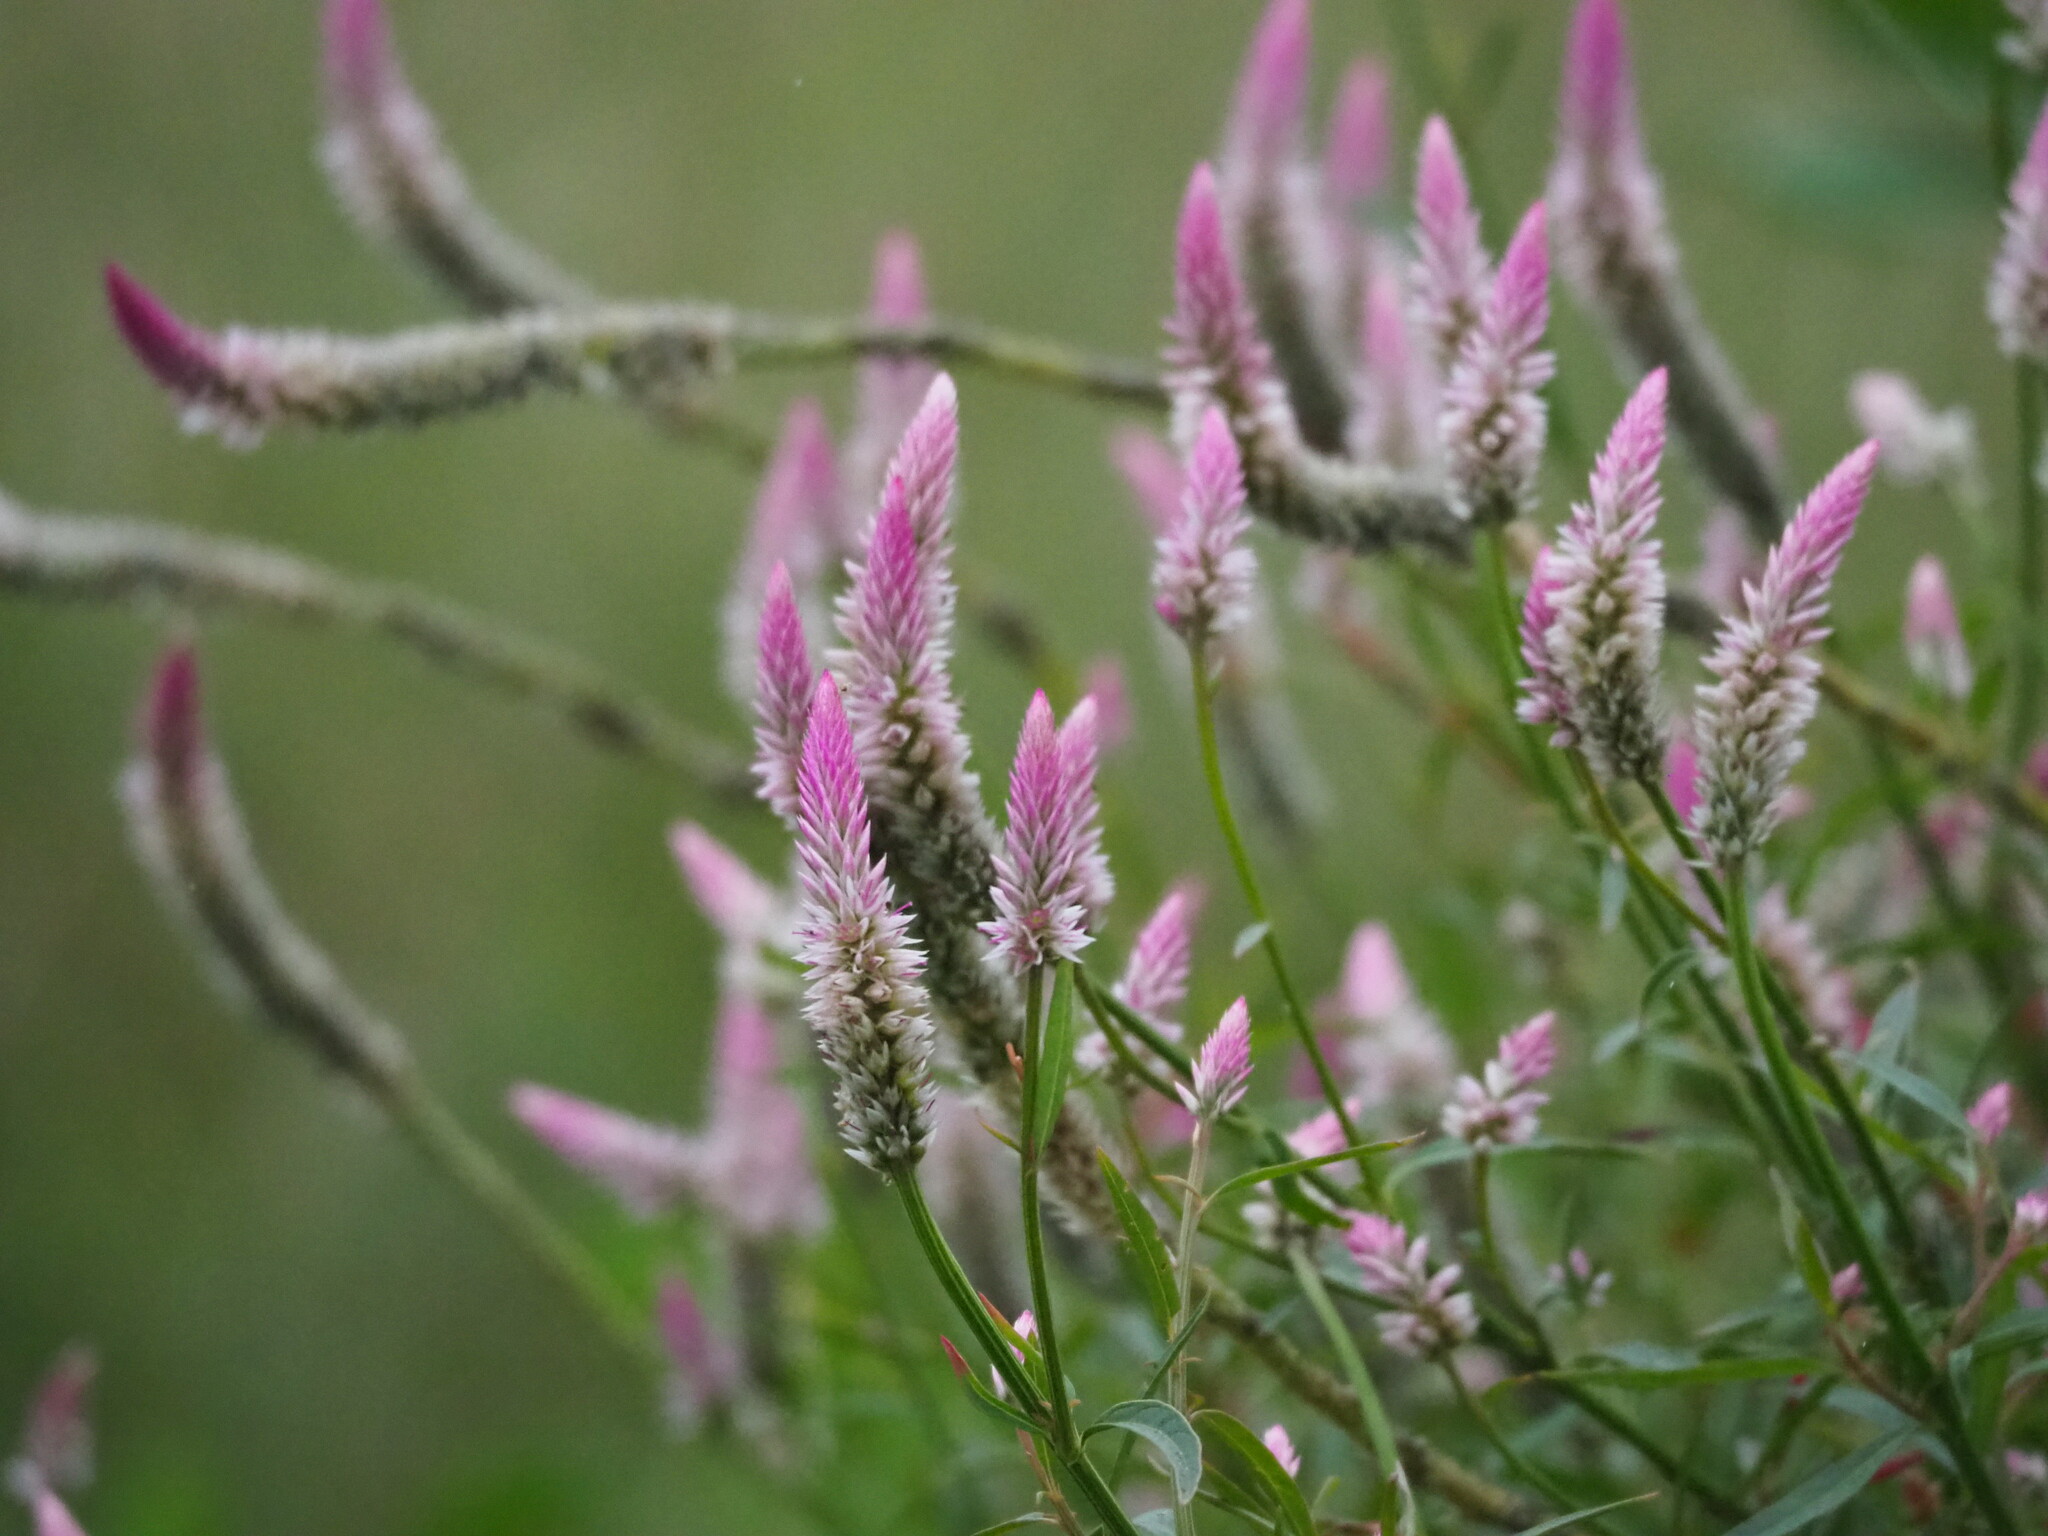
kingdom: Plantae
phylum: Tracheophyta
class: Magnoliopsida
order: Caryophyllales
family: Amaranthaceae
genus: Celosia
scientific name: Celosia argentea
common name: Feather cockscomb
